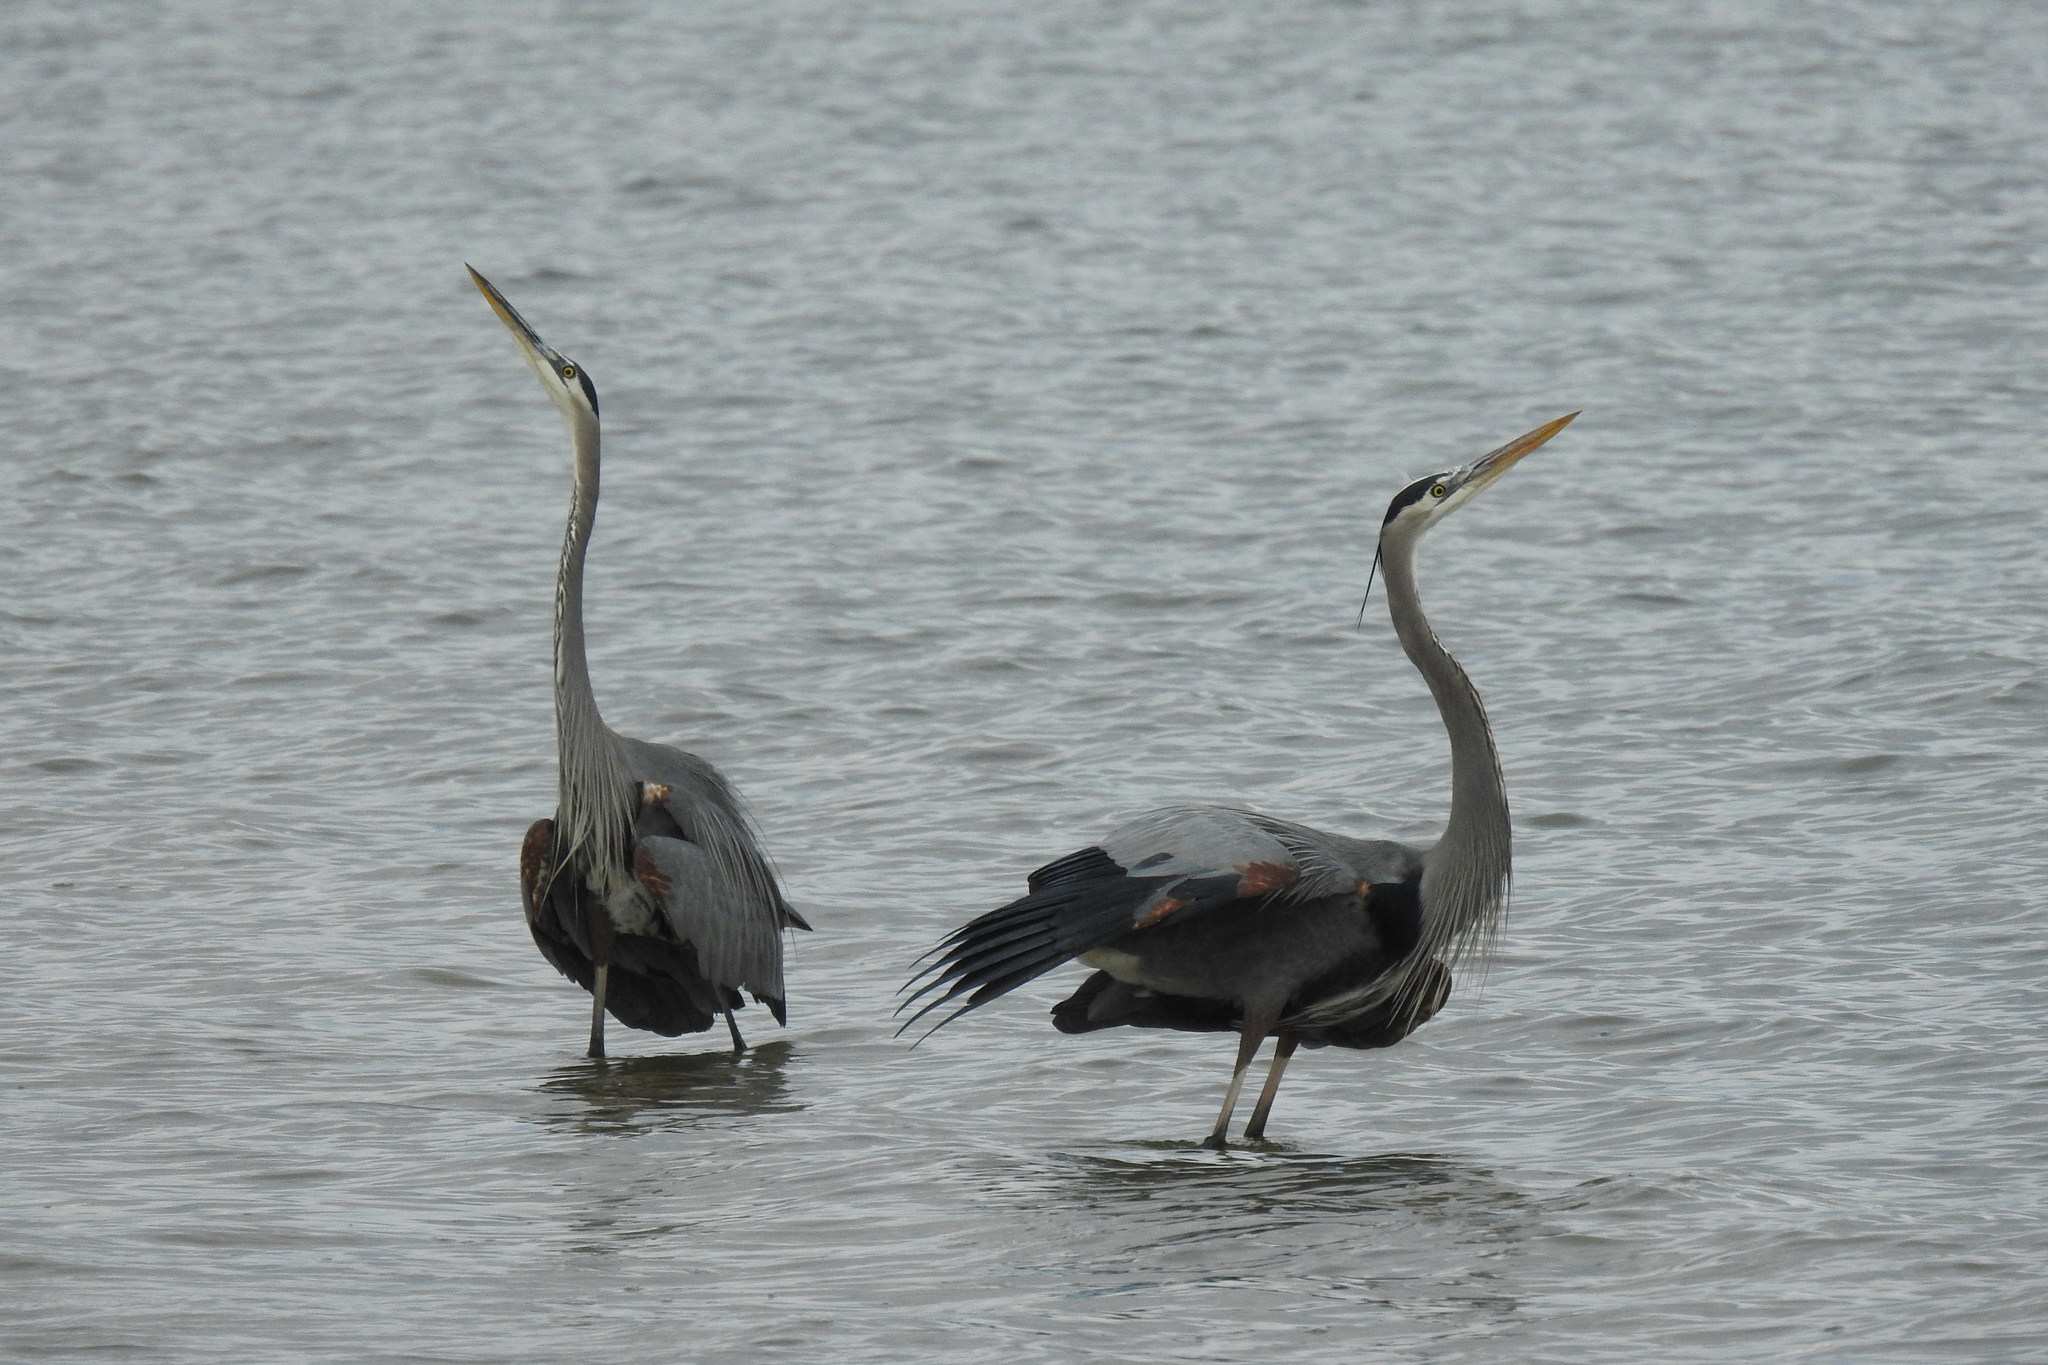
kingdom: Animalia
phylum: Chordata
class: Aves
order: Pelecaniformes
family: Ardeidae
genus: Ardea
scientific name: Ardea herodias
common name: Great blue heron
